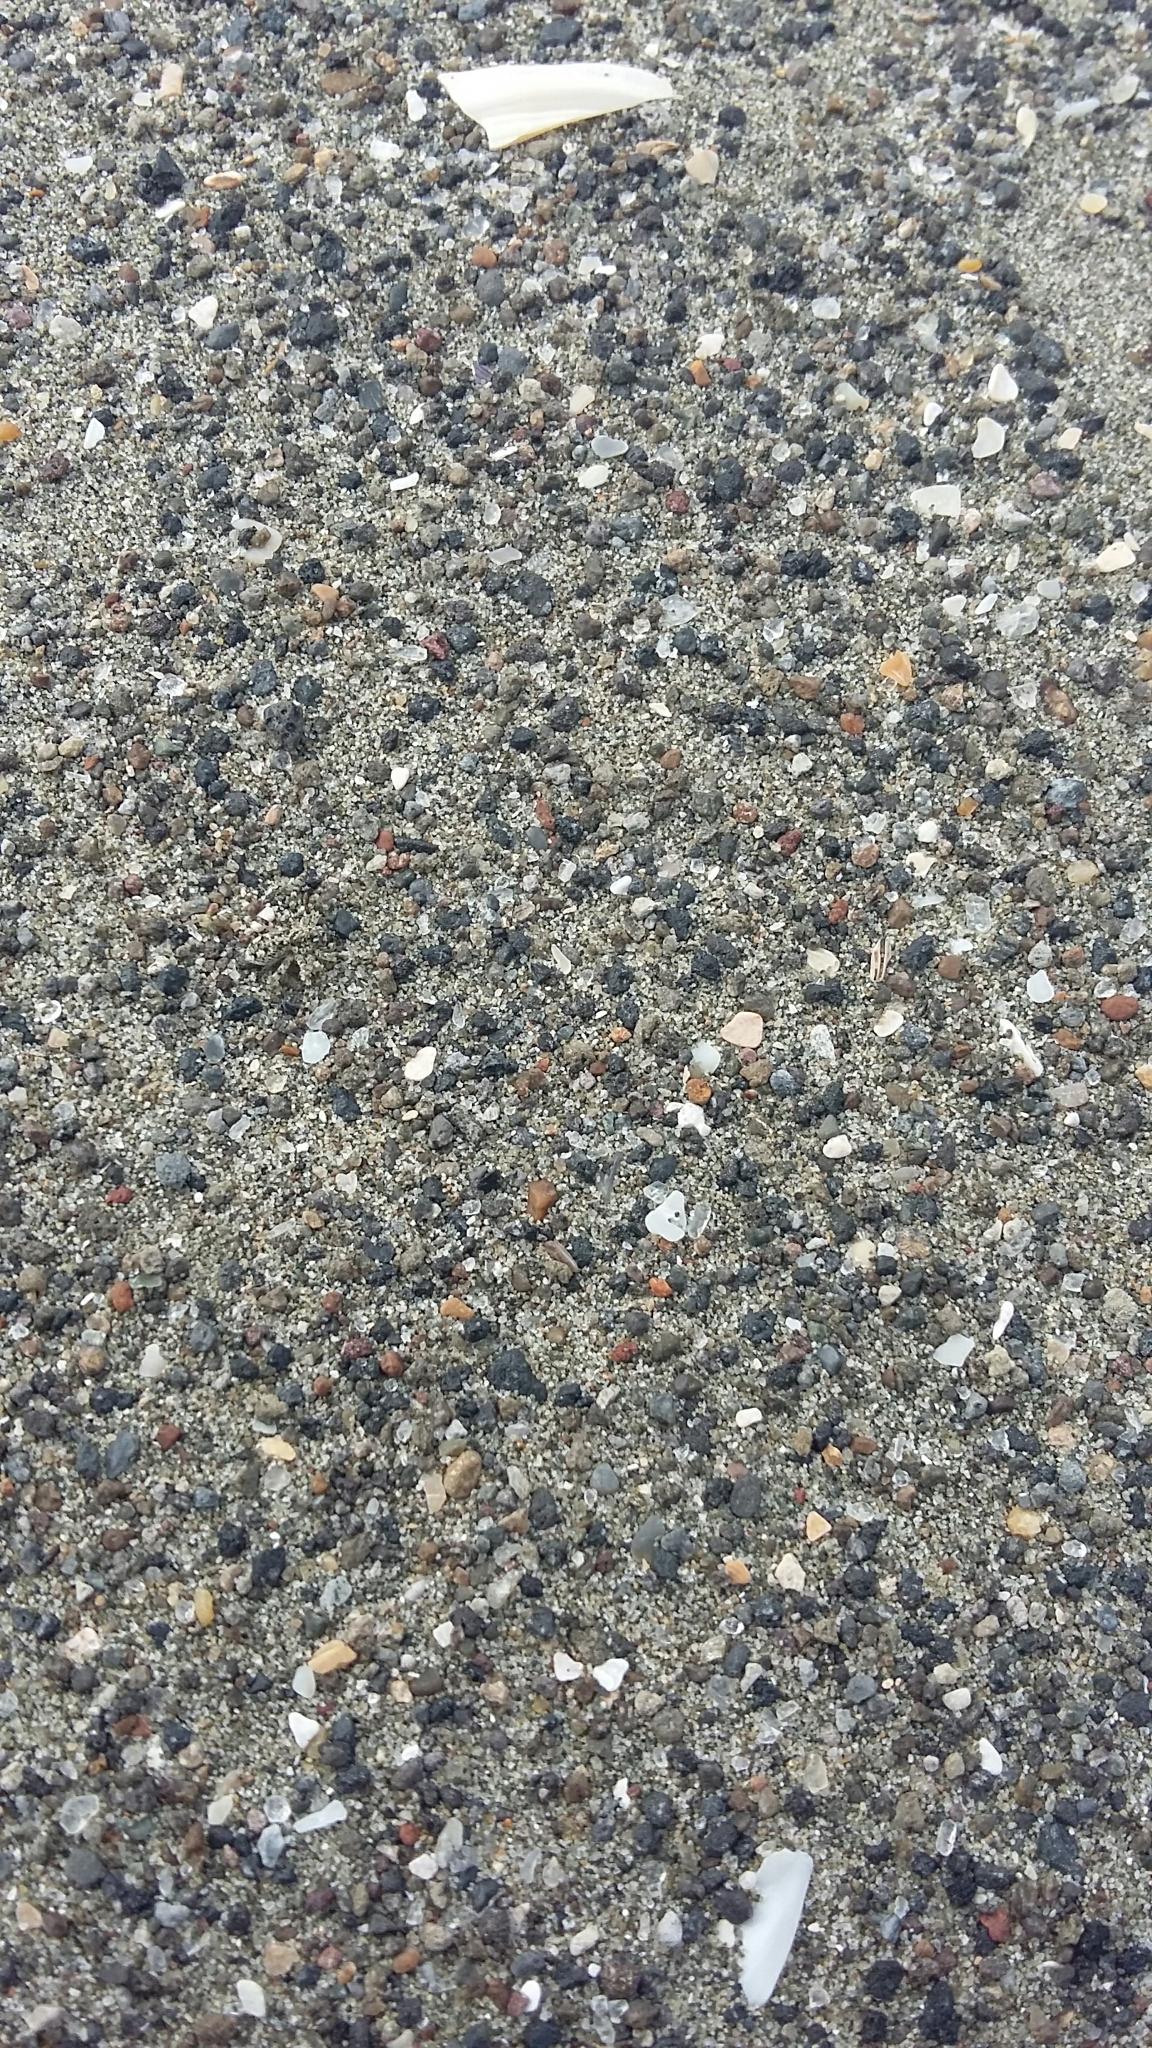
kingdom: Animalia
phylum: Arthropoda
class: Arachnida
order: Araneae
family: Lycosidae
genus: Anoteropsis
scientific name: Anoteropsis litoralis
